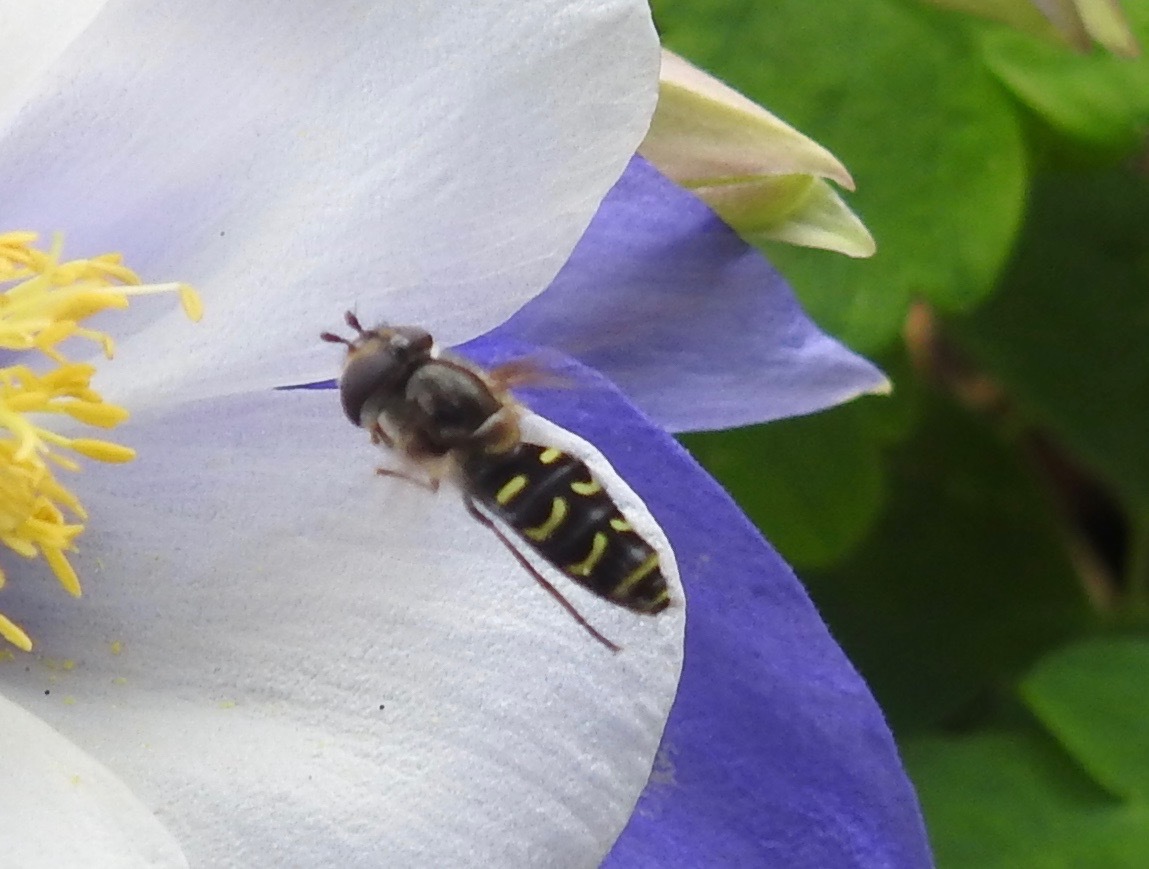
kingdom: Animalia
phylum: Arthropoda
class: Insecta
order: Diptera
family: Syrphidae
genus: Scaeva
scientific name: Scaeva affinis
